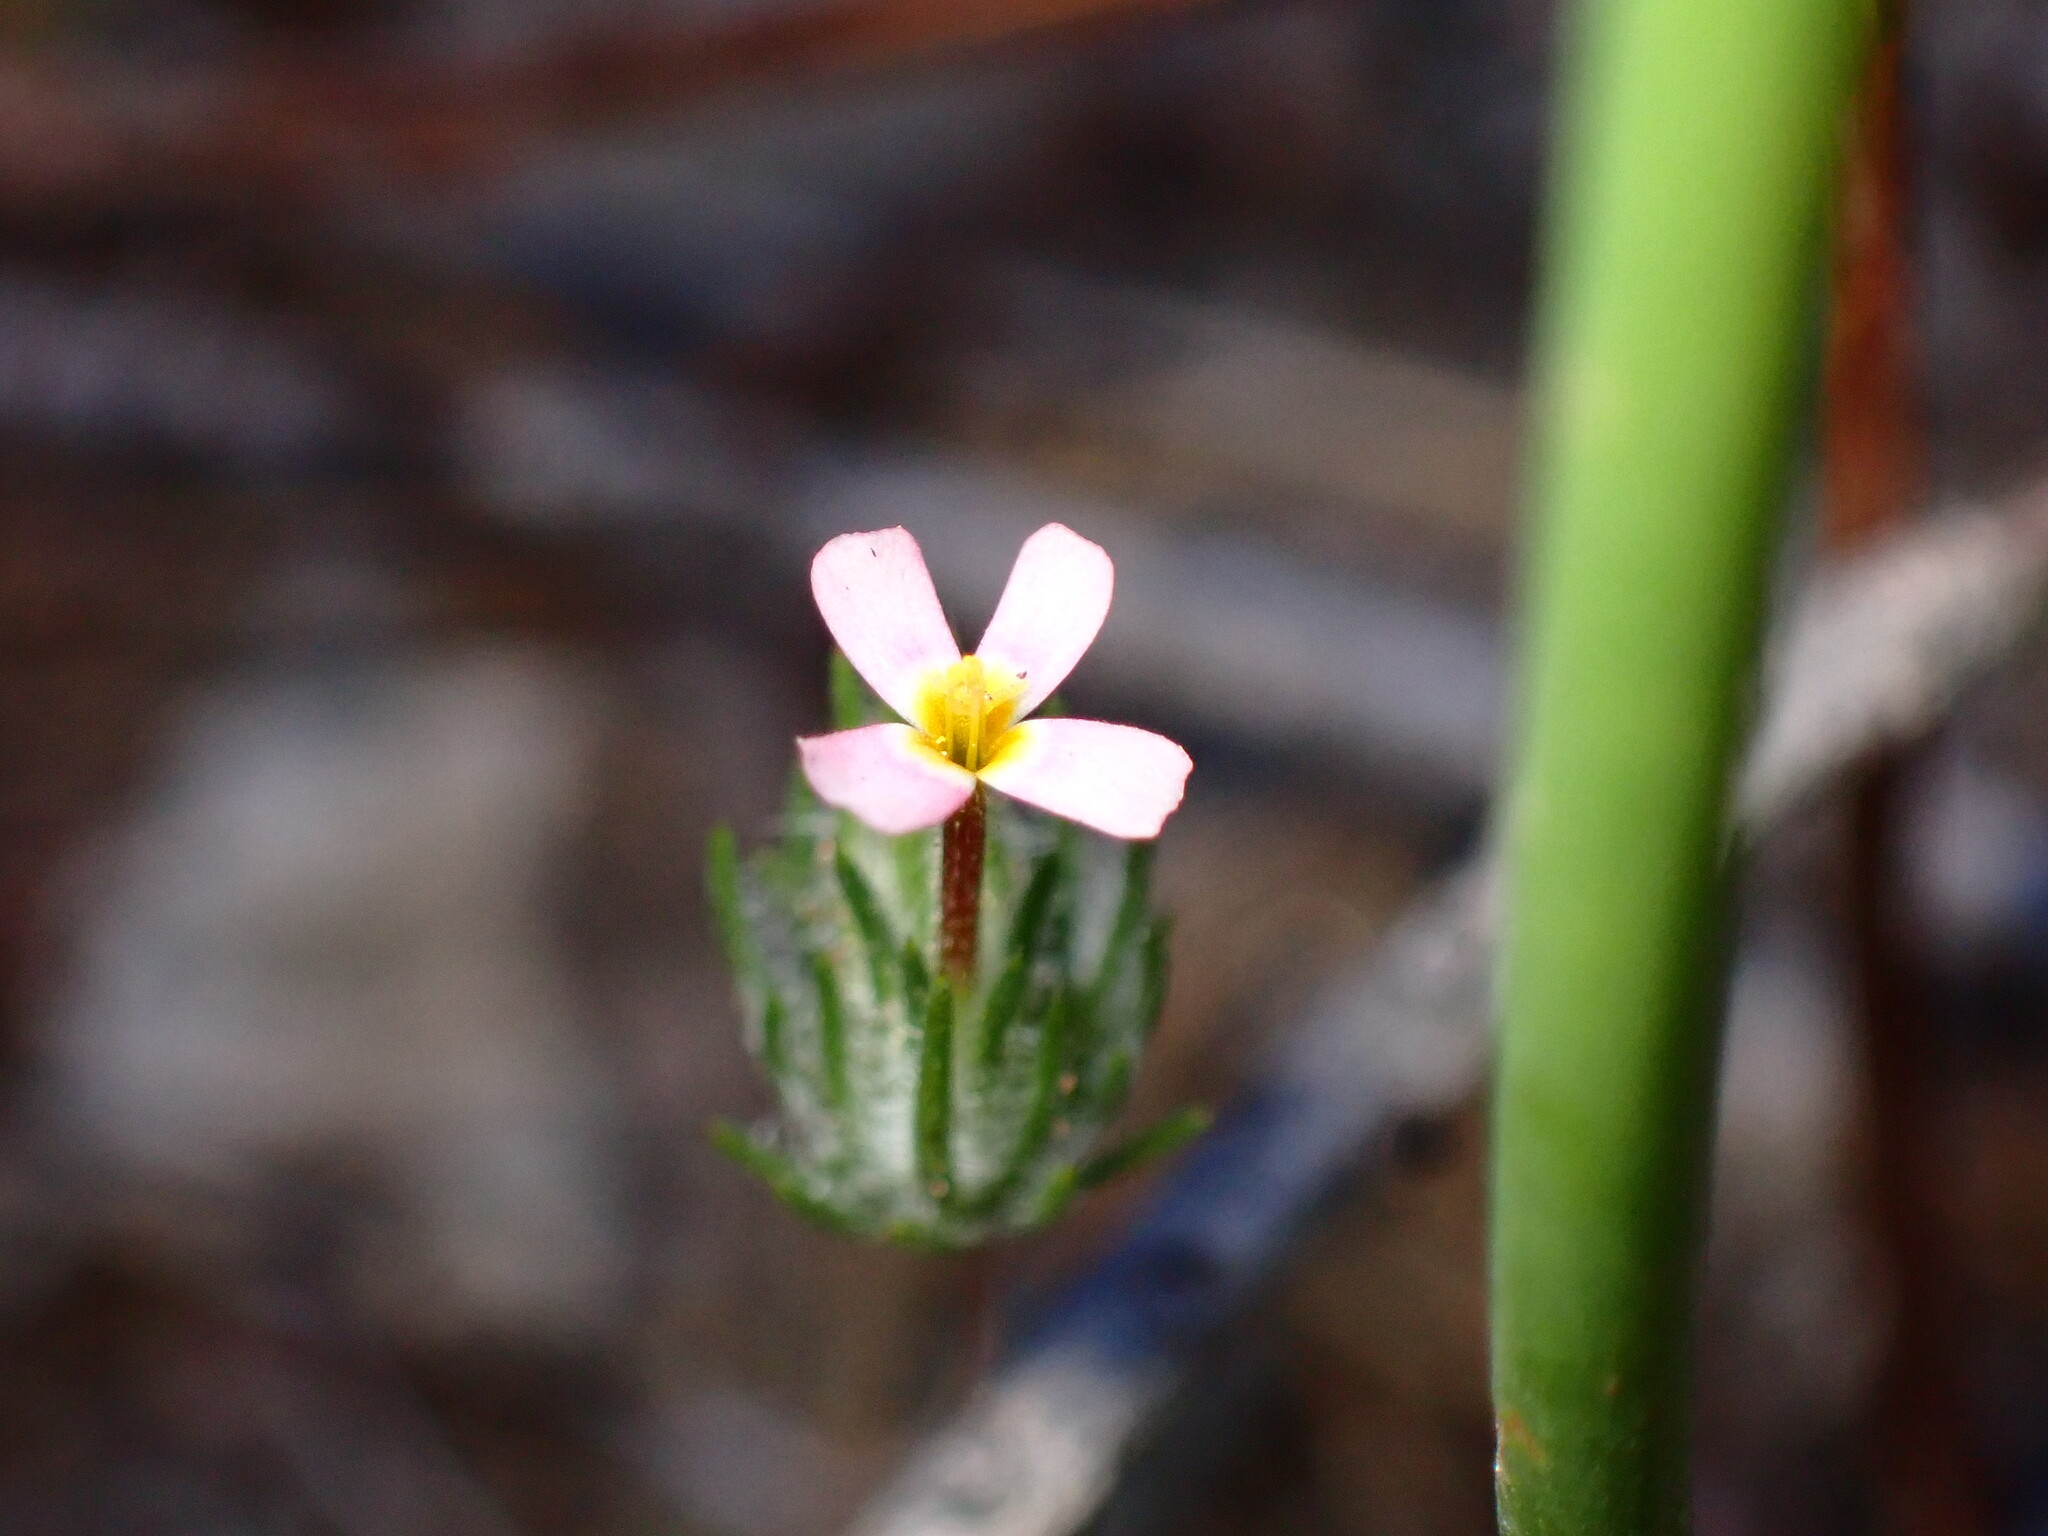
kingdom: Plantae
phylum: Tracheophyta
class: Magnoliopsida
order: Ericales
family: Polemoniaceae
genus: Leptosiphon
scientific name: Leptosiphon ciliatus
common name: Whiskerbrush
